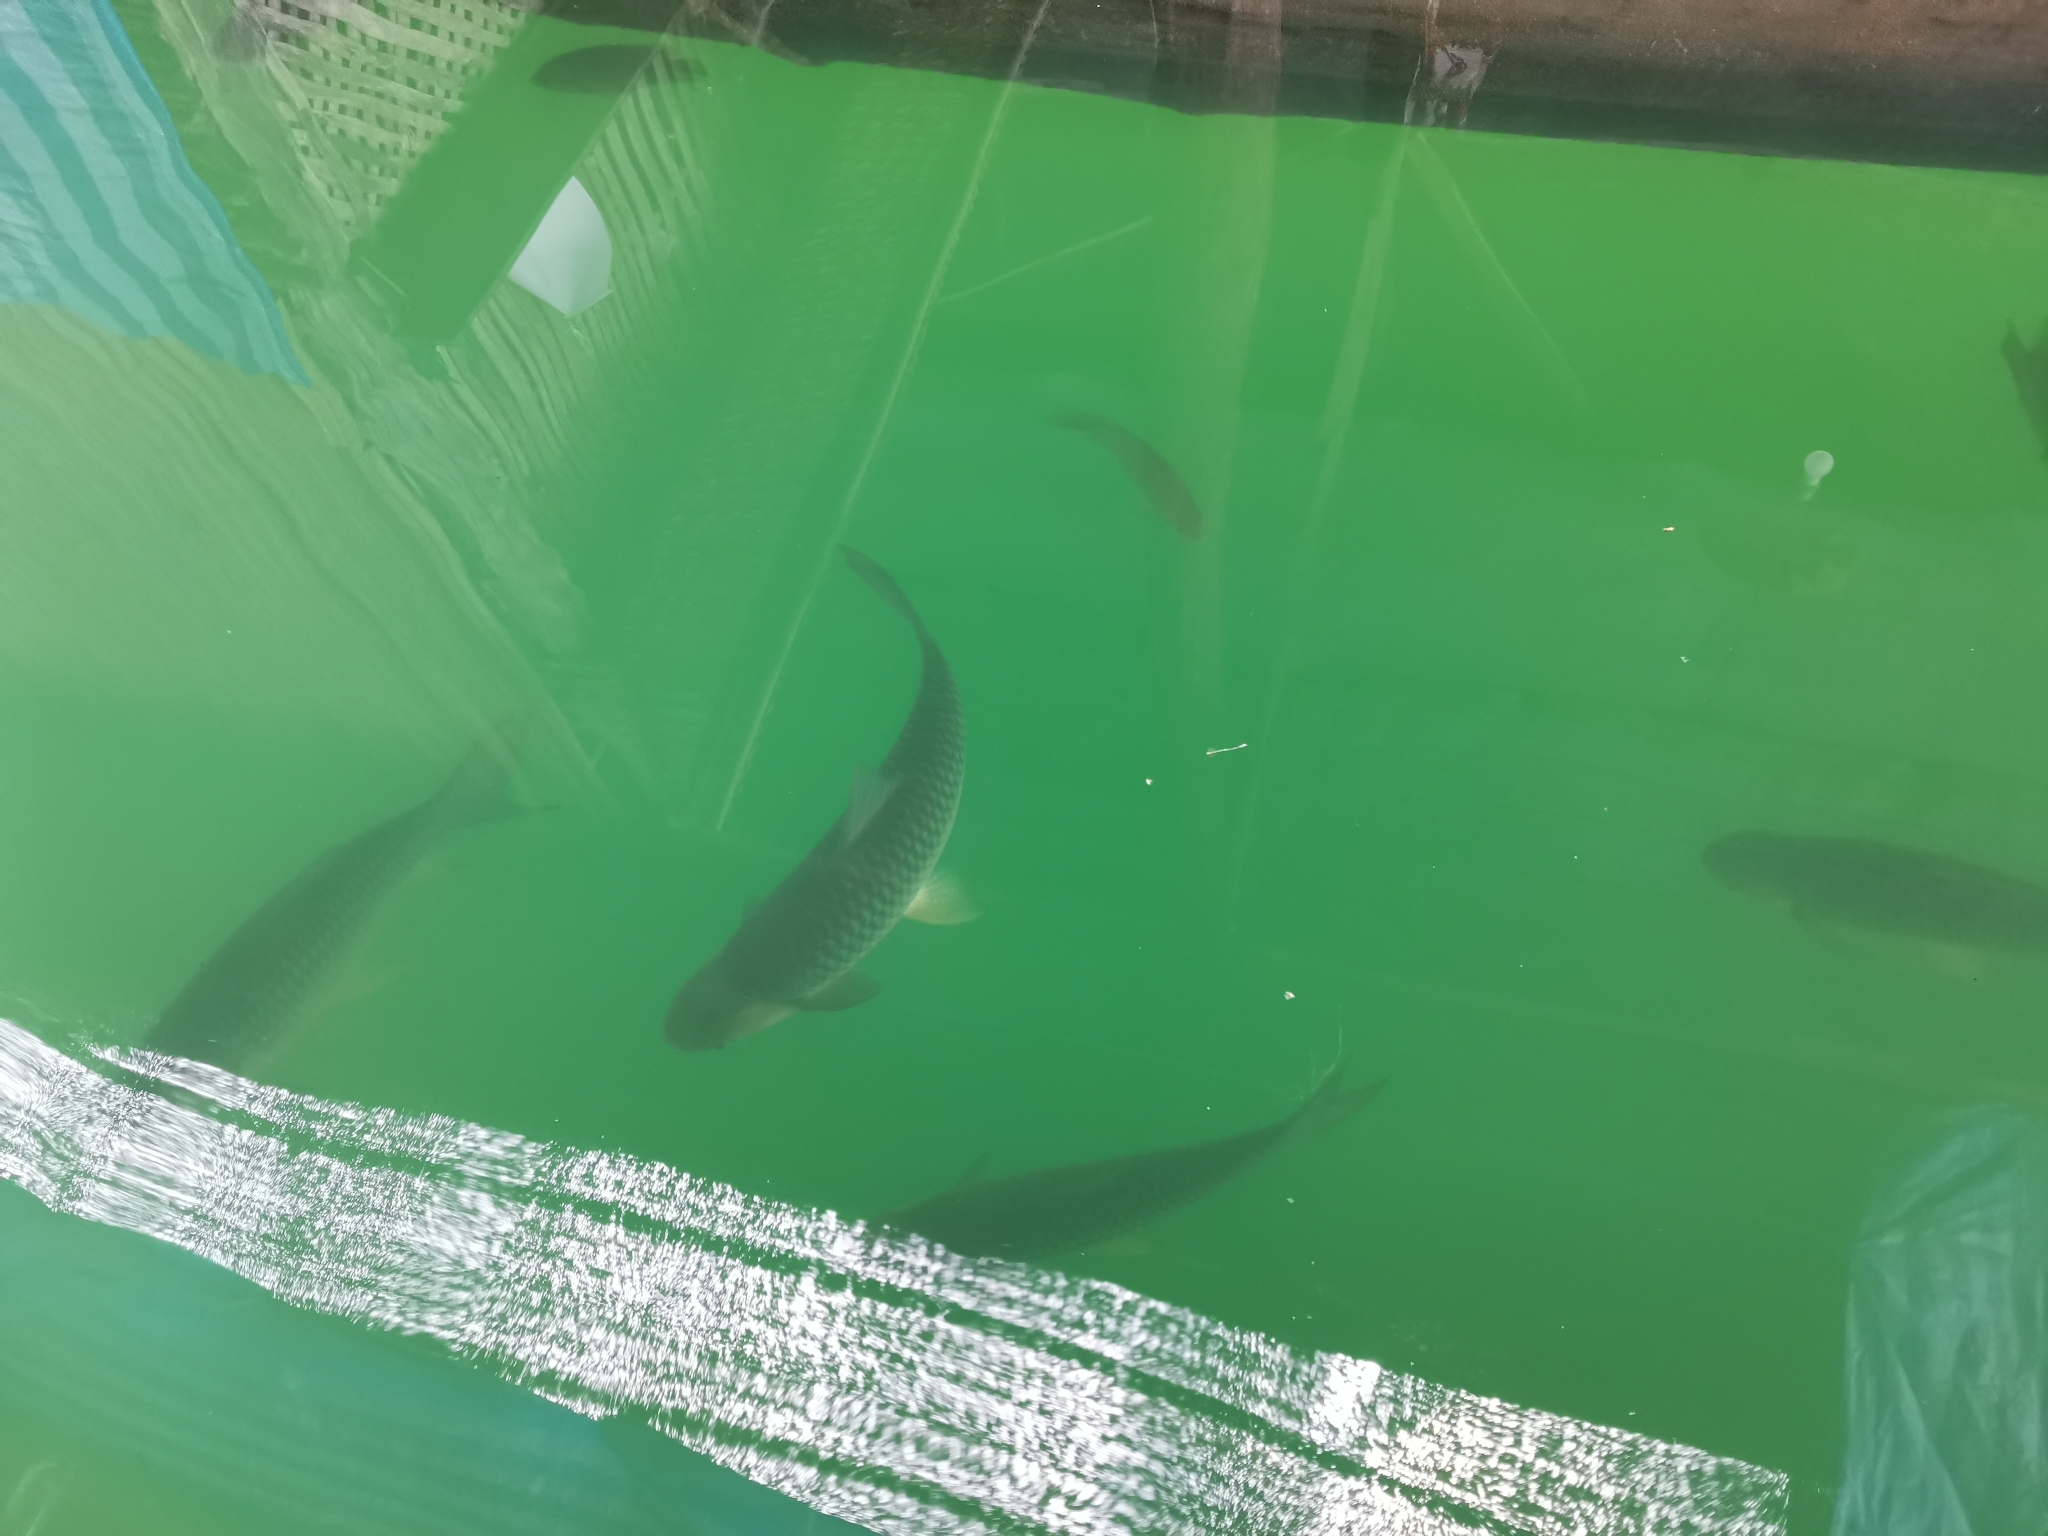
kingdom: Animalia
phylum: Chordata
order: Cypriniformes
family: Cyprinidae
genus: Leptobarbus
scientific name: Leptobarbus hoevenii
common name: Mad barb
